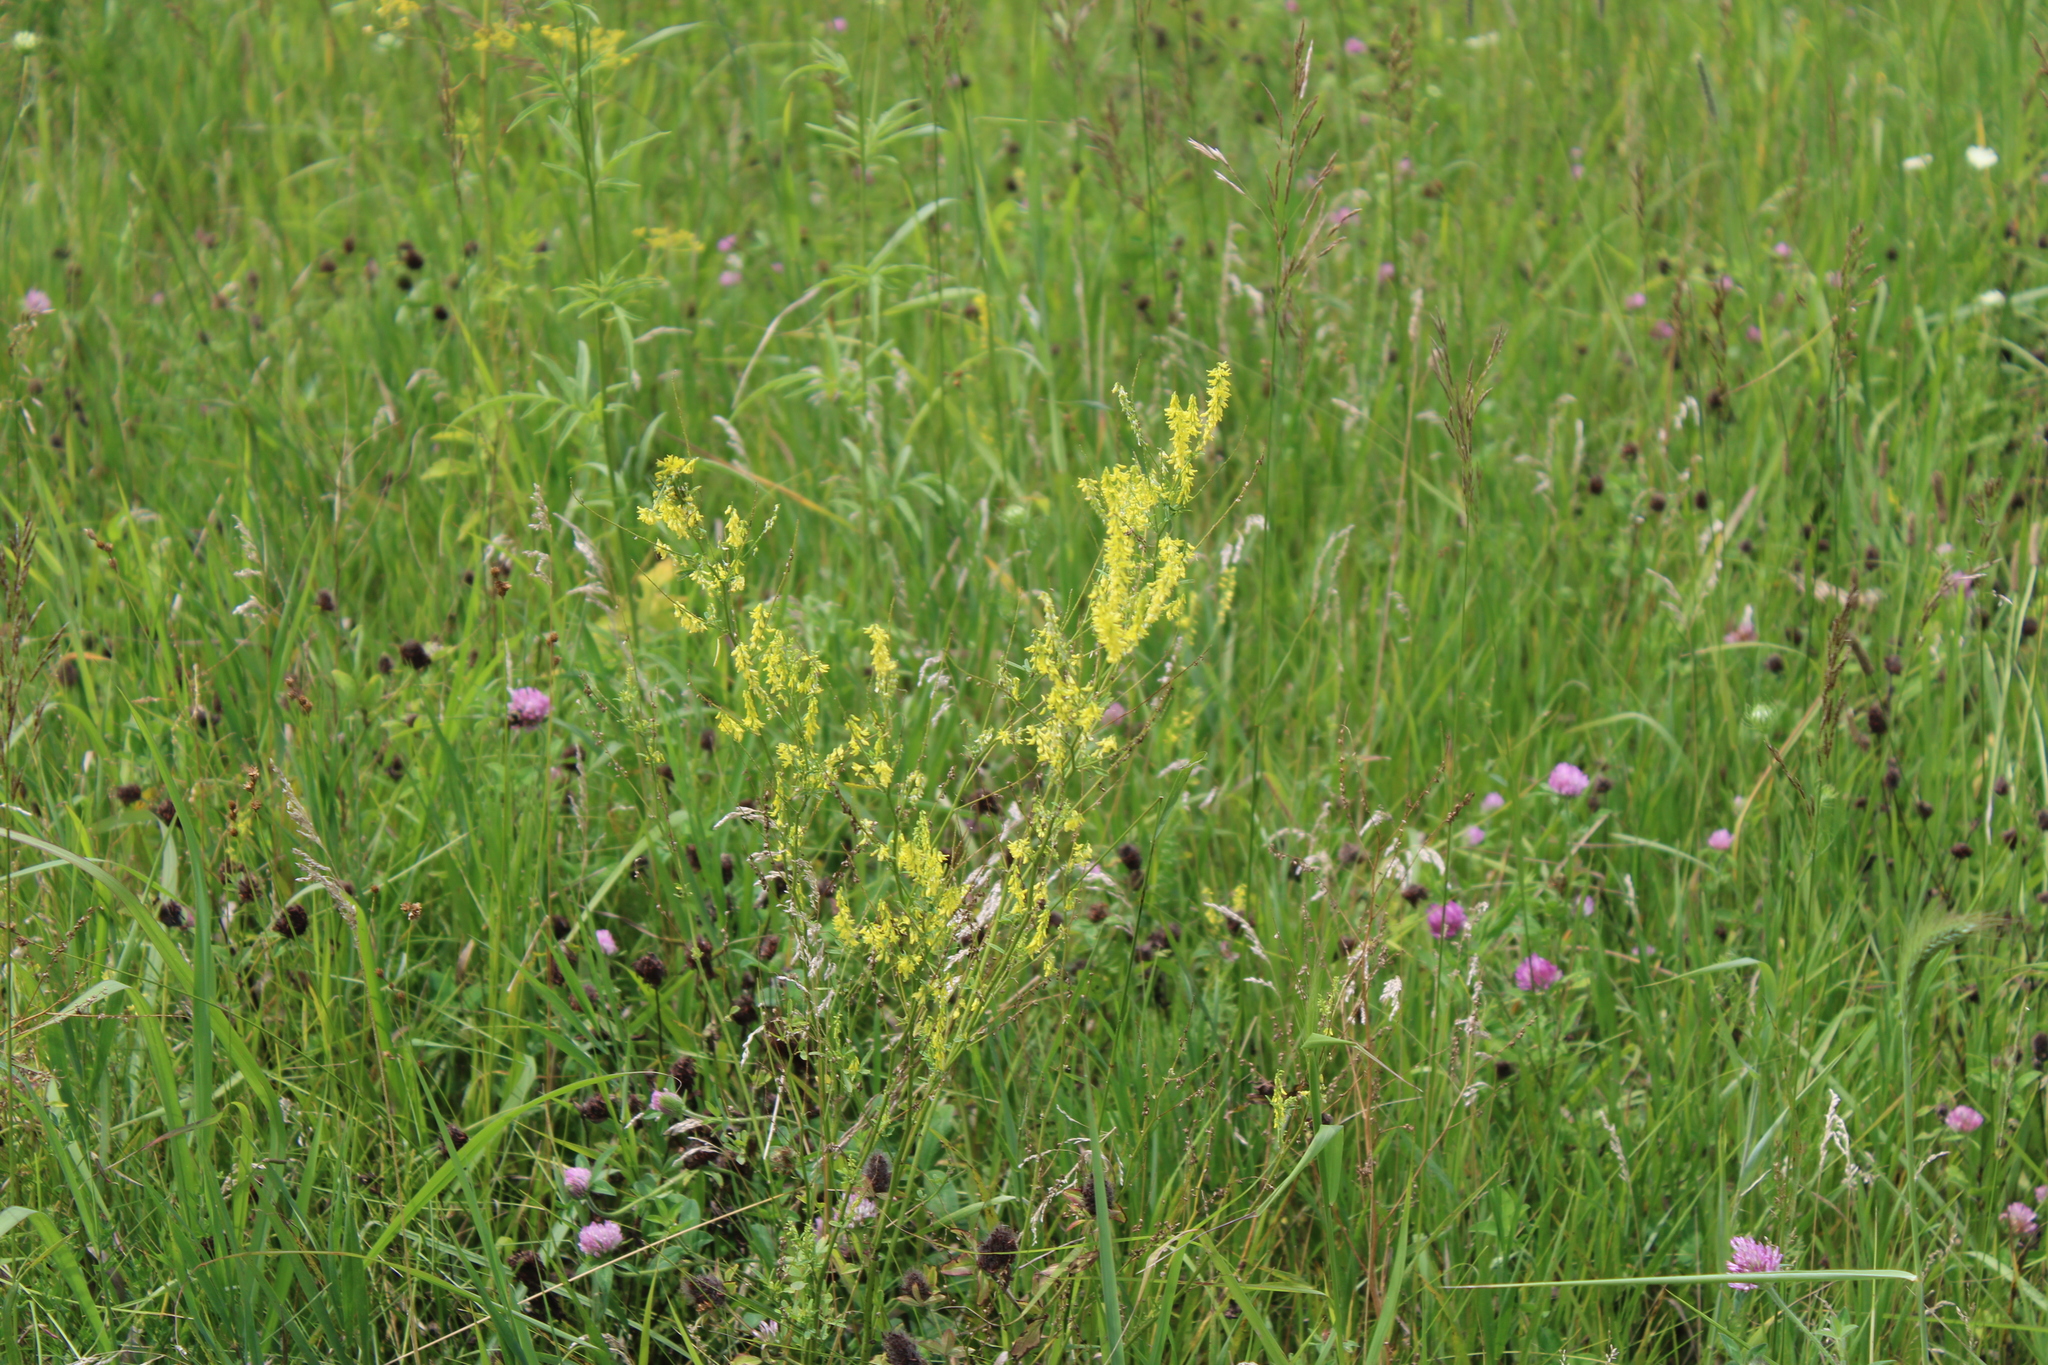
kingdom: Plantae
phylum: Tracheophyta
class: Magnoliopsida
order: Fabales
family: Fabaceae
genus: Melilotus
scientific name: Melilotus officinalis
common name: Sweetclover
